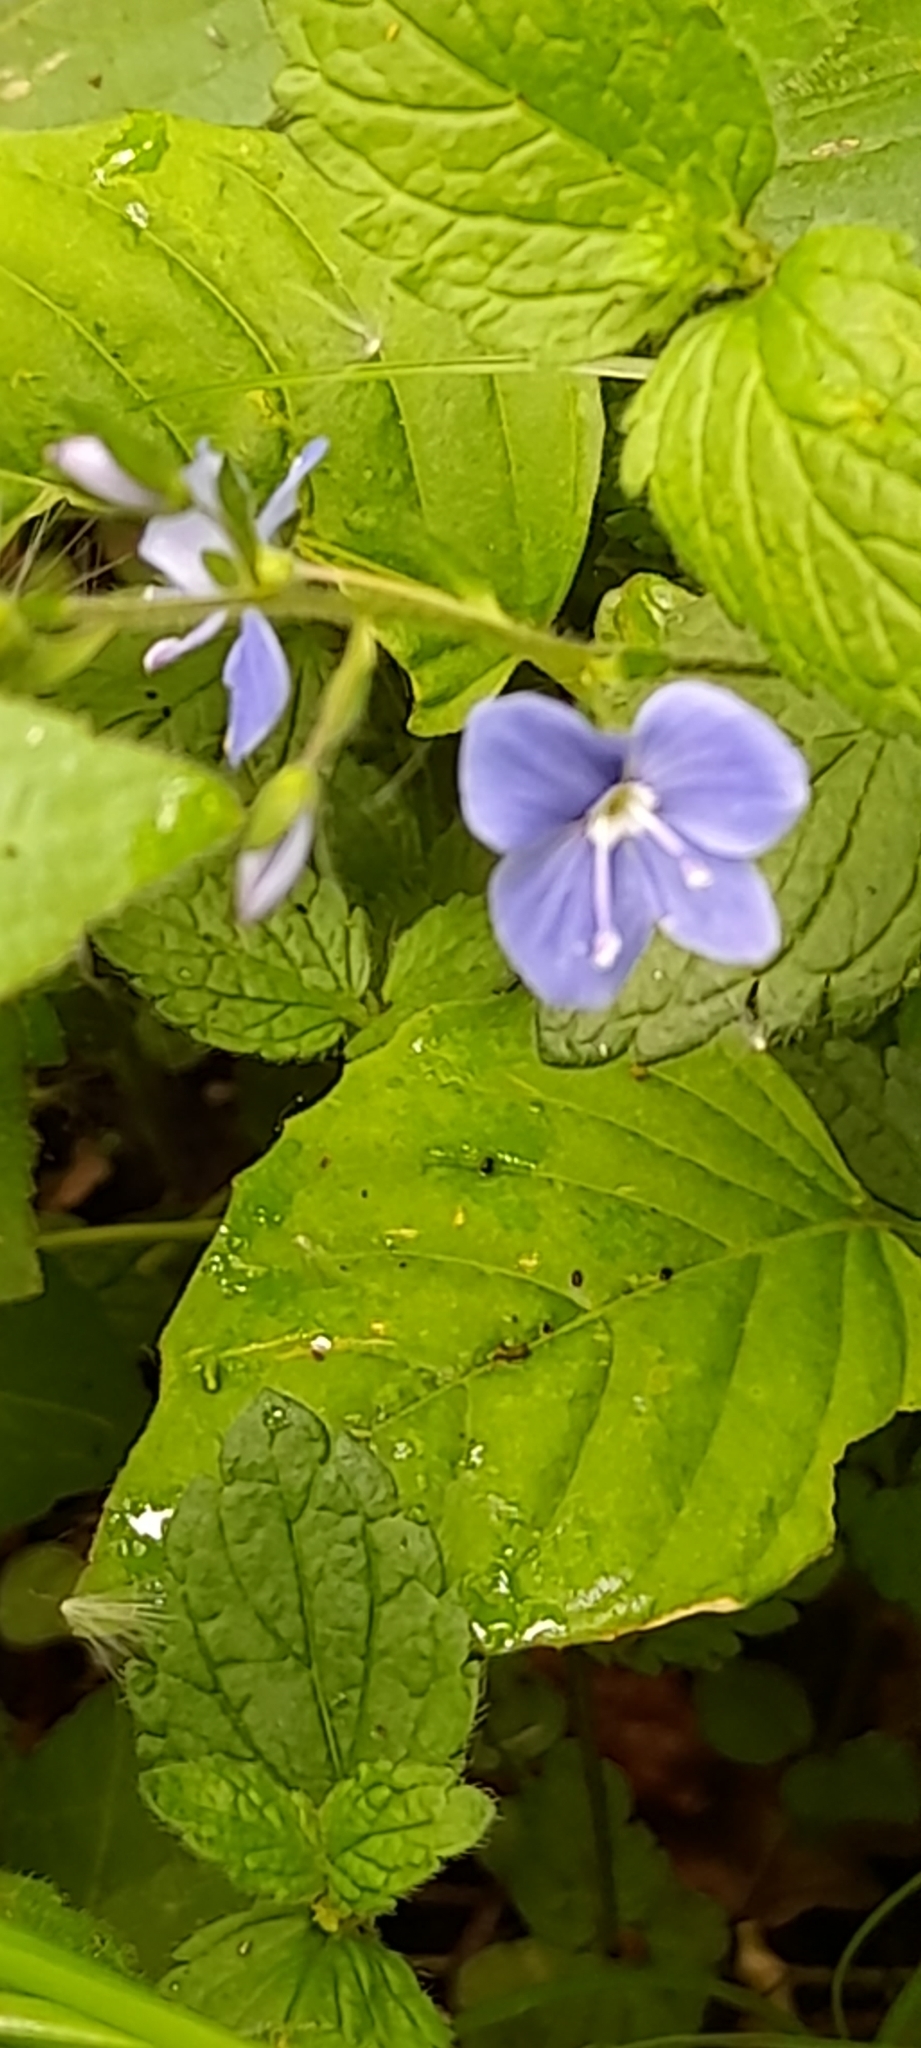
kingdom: Plantae
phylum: Tracheophyta
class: Magnoliopsida
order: Lamiales
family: Plantaginaceae
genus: Veronica
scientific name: Veronica chamaedrys
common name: Germander speedwell
